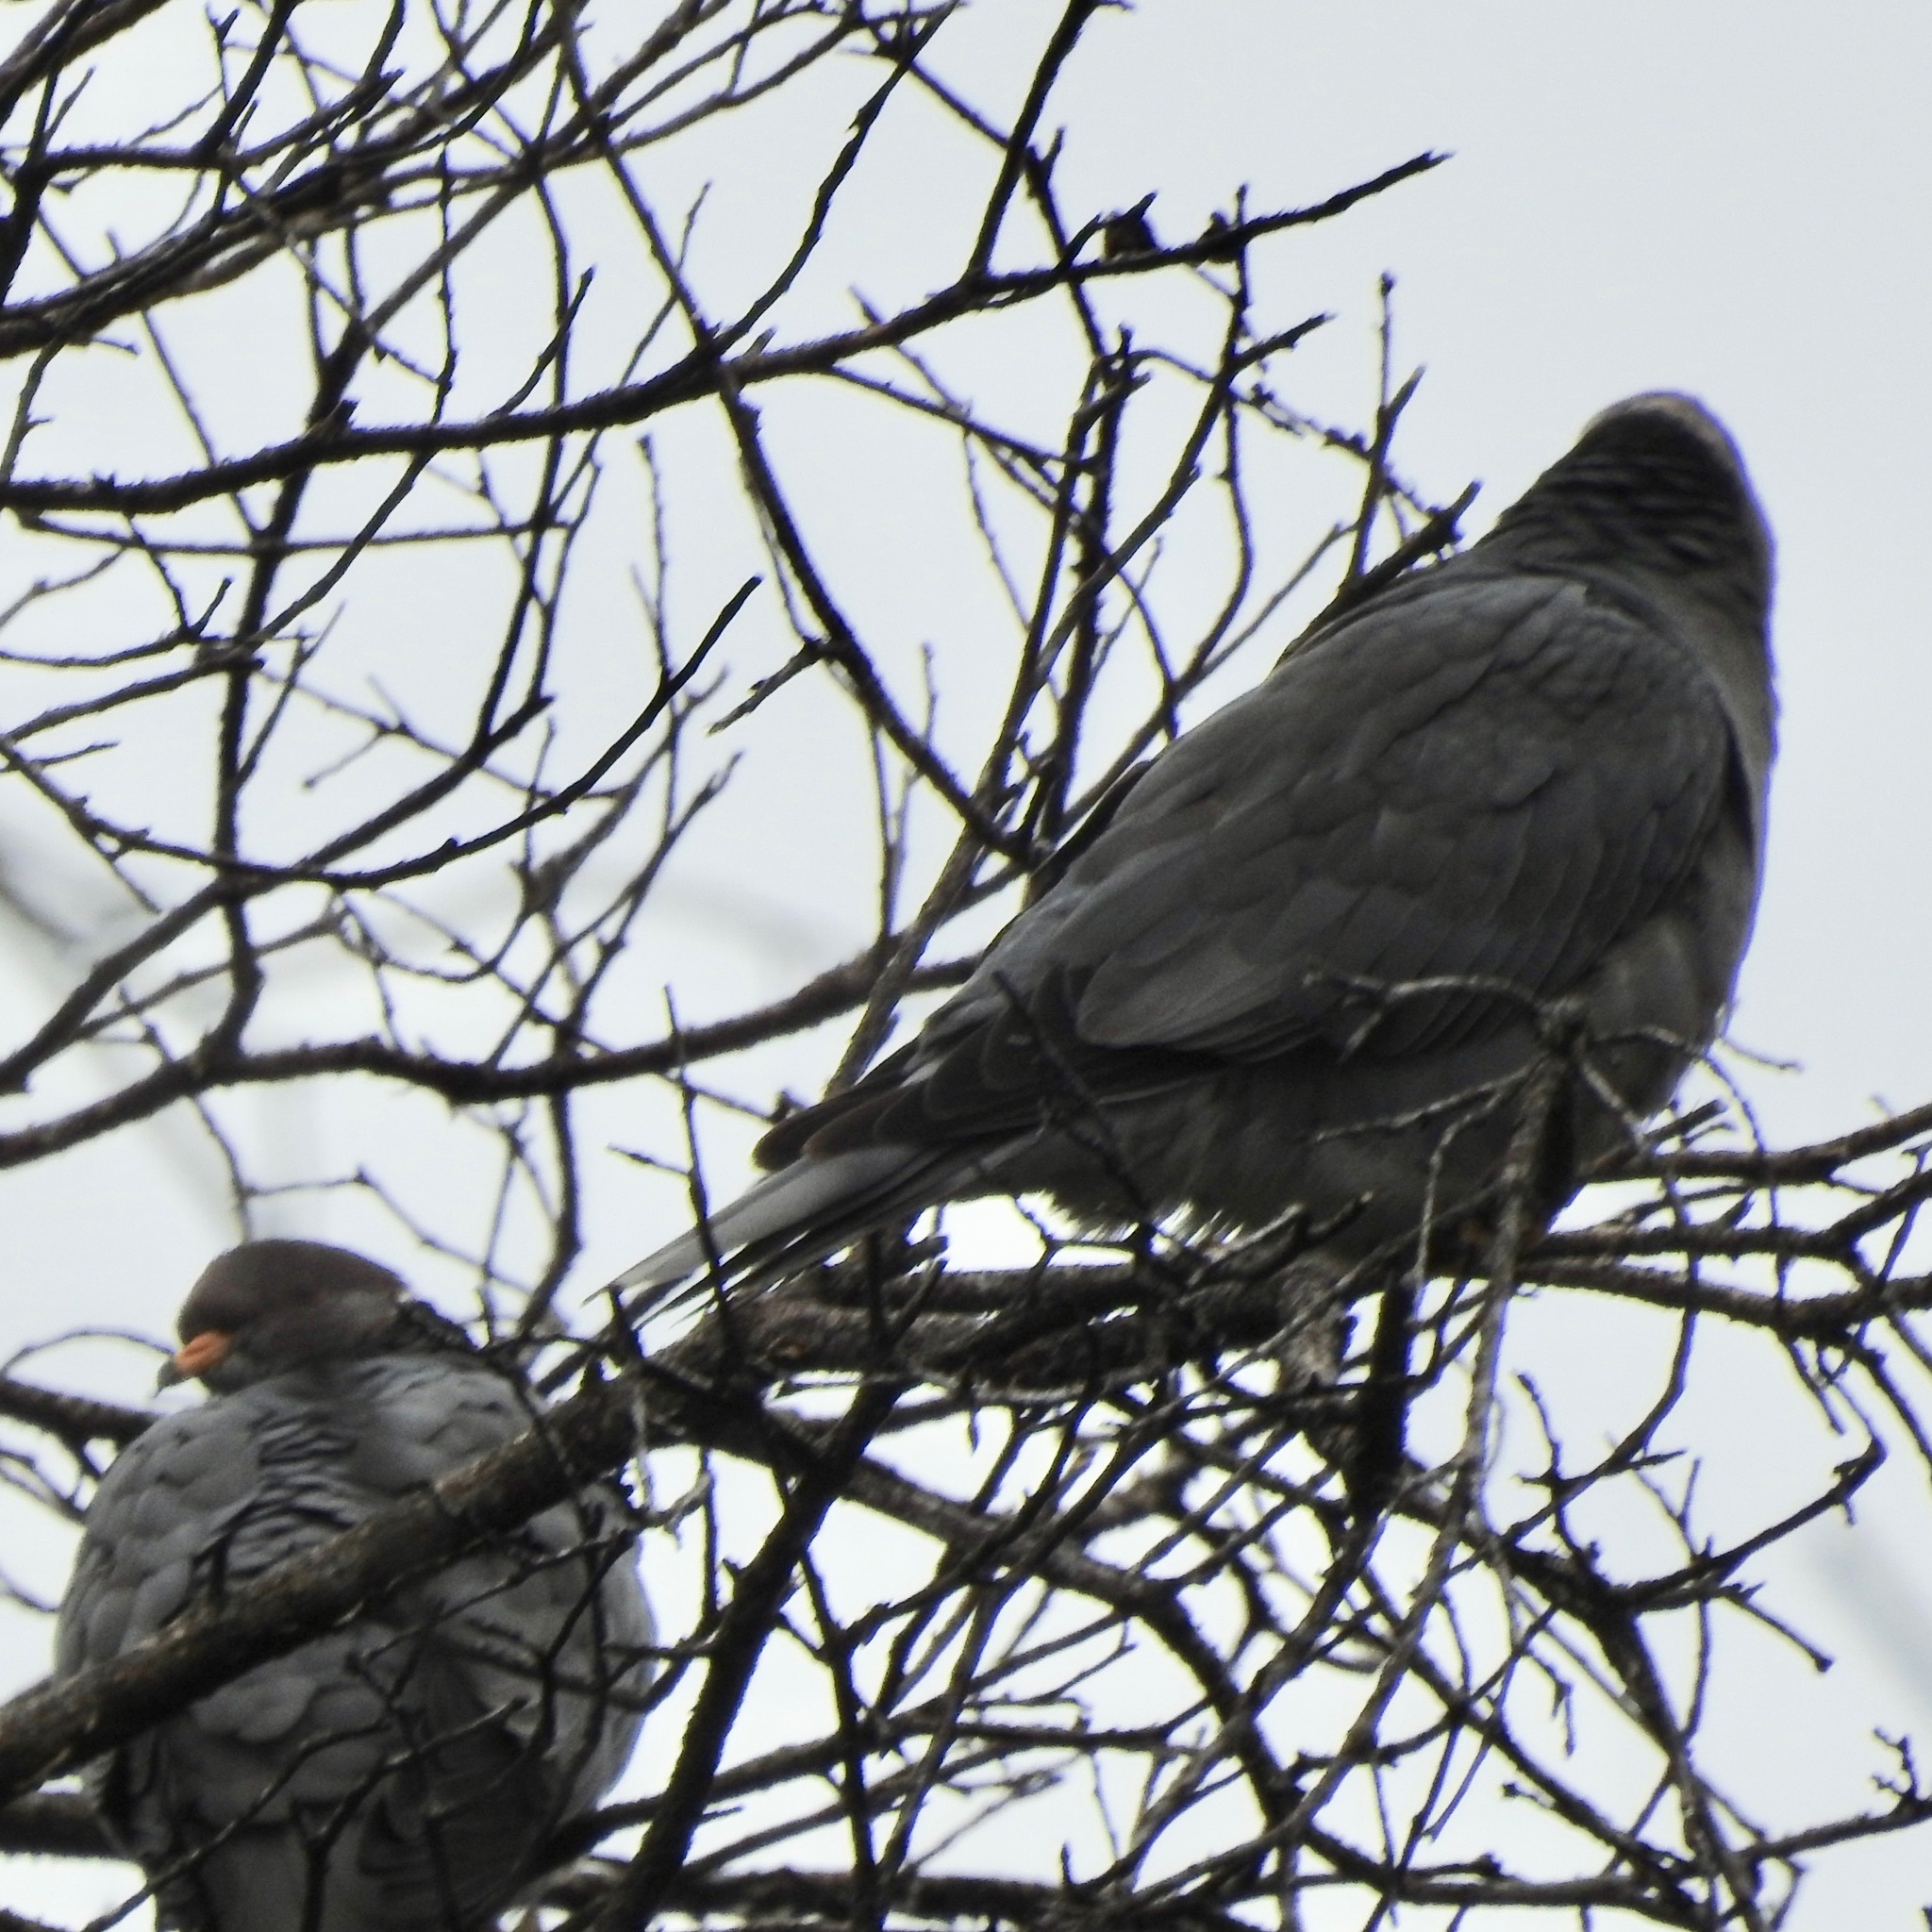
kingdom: Animalia
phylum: Chordata
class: Aves
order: Columbiformes
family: Columbidae
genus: Patagioenas
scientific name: Patagioenas fasciata
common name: Band-tailed pigeon
